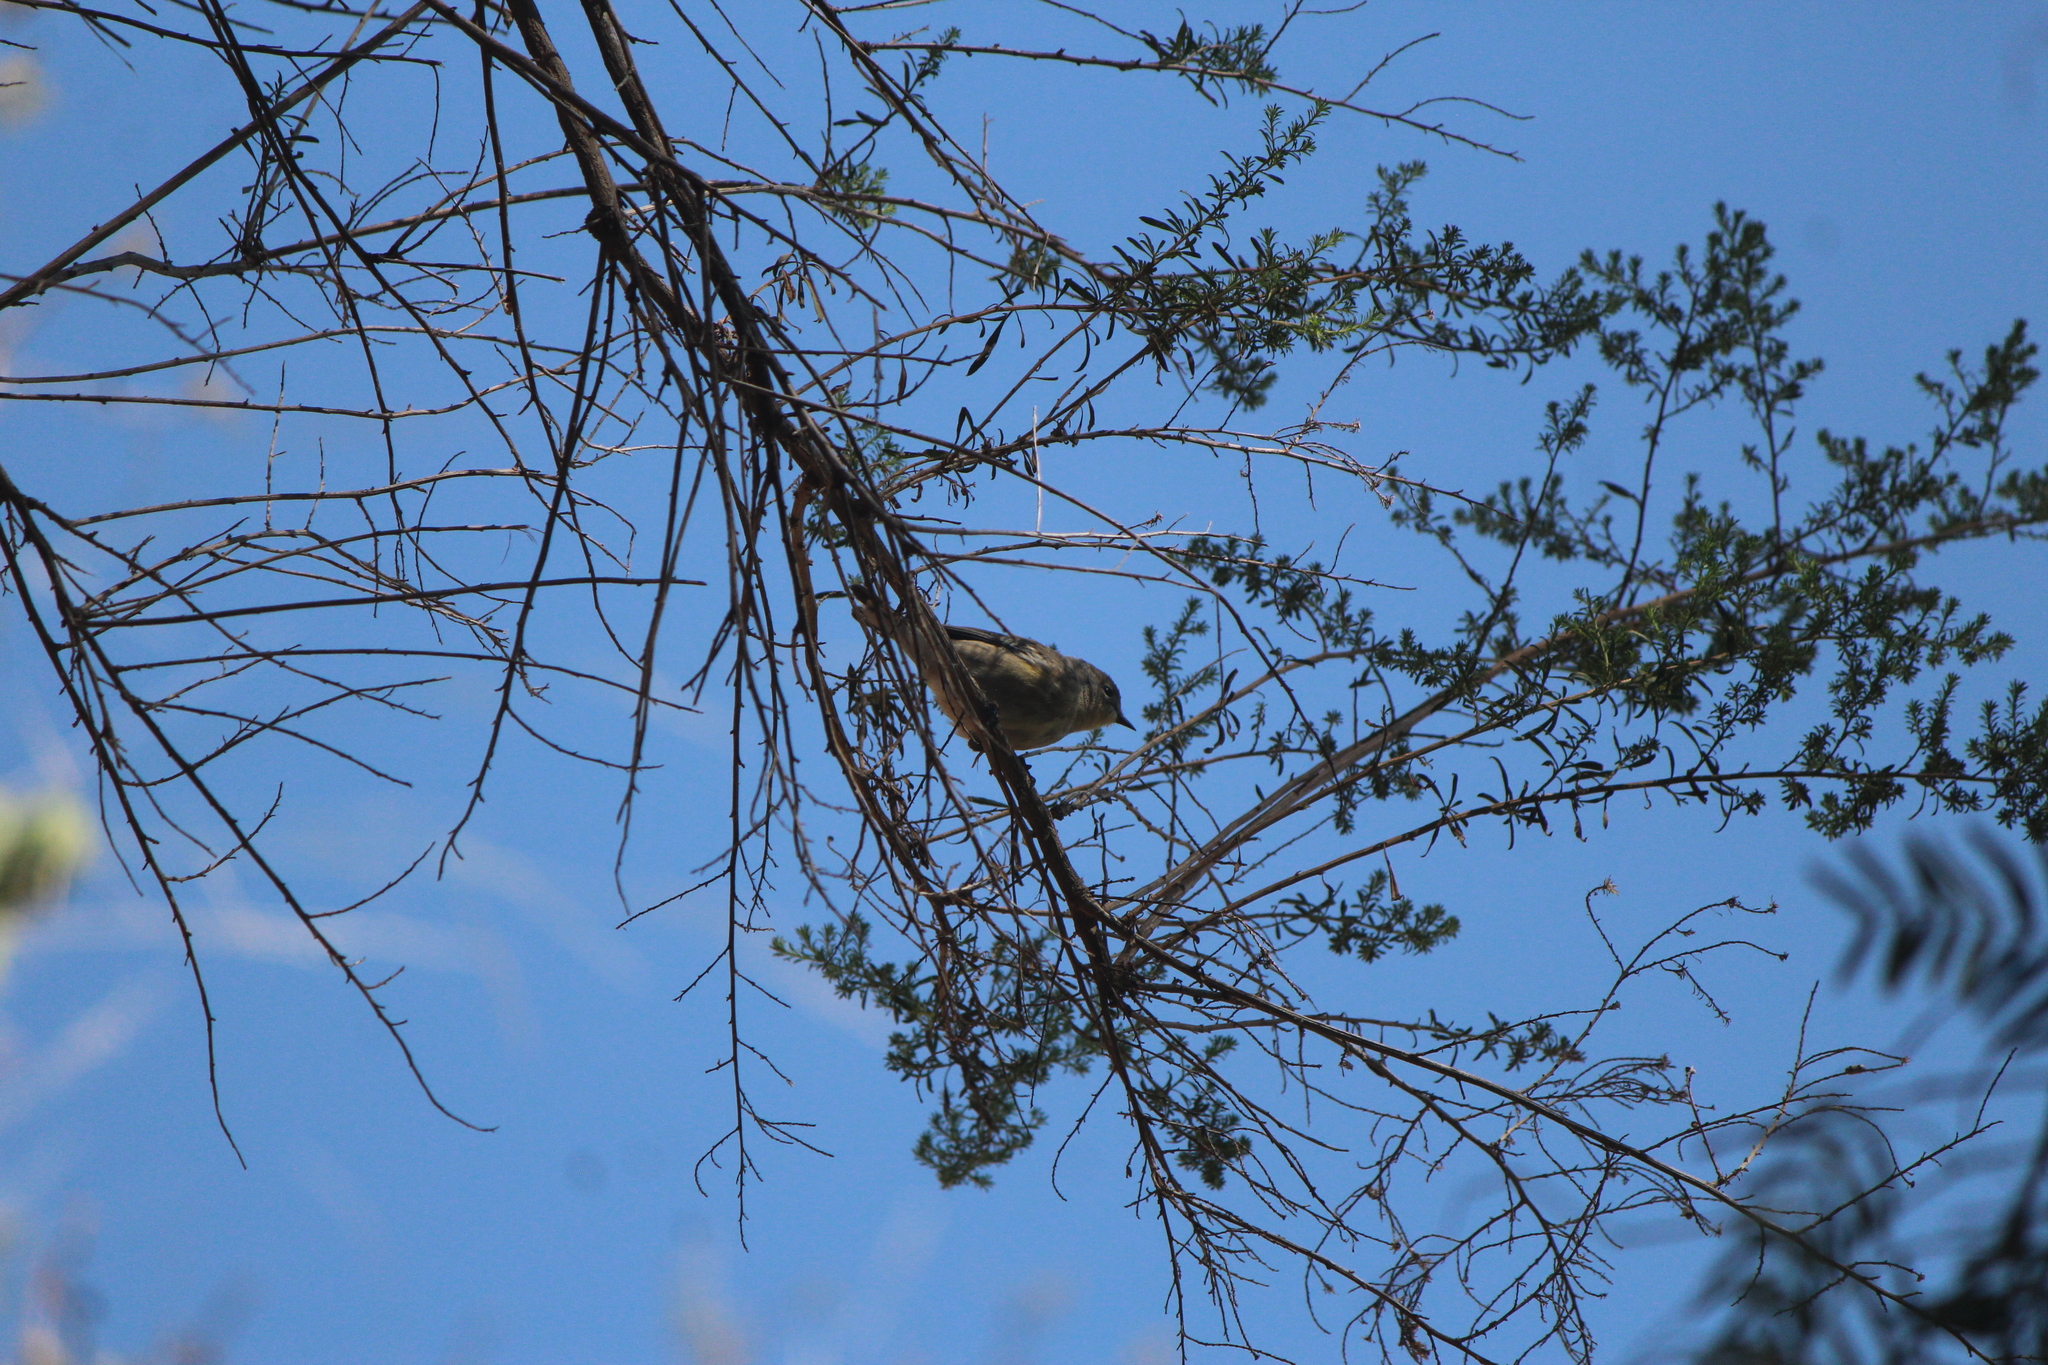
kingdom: Animalia
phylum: Chordata
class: Aves
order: Passeriformes
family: Parulidae
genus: Setophaga
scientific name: Setophaga auduboni
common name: Audubon's warbler
